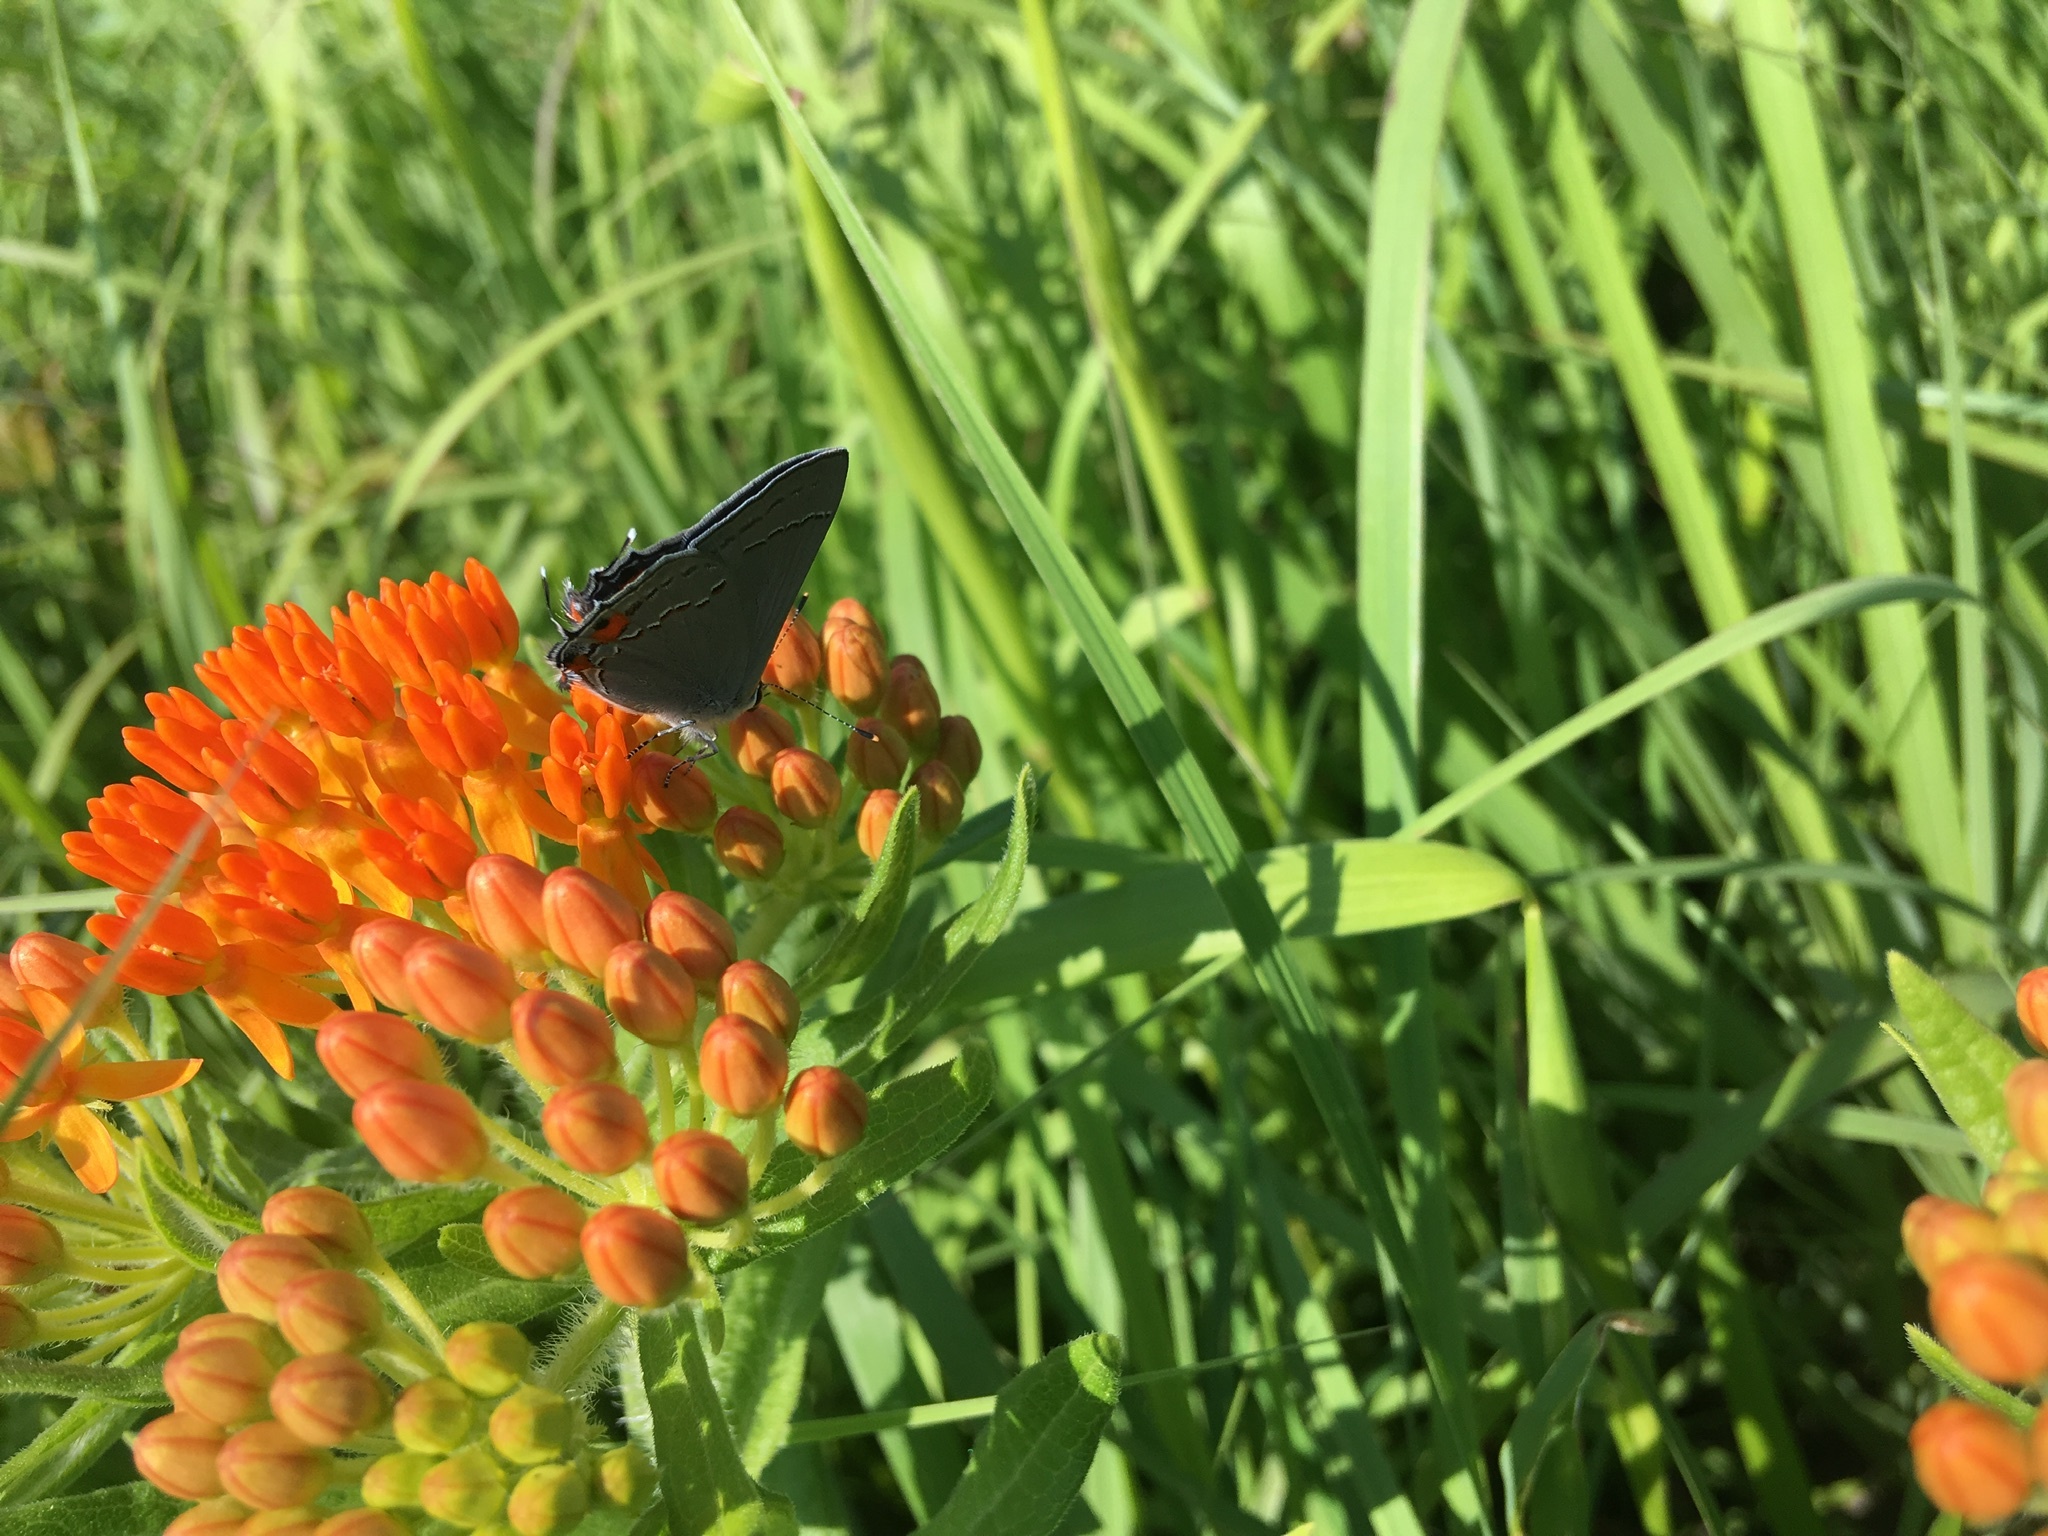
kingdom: Animalia
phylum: Arthropoda
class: Insecta
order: Lepidoptera
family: Lycaenidae
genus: Strymon
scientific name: Strymon melinus
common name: Gray hairstreak
